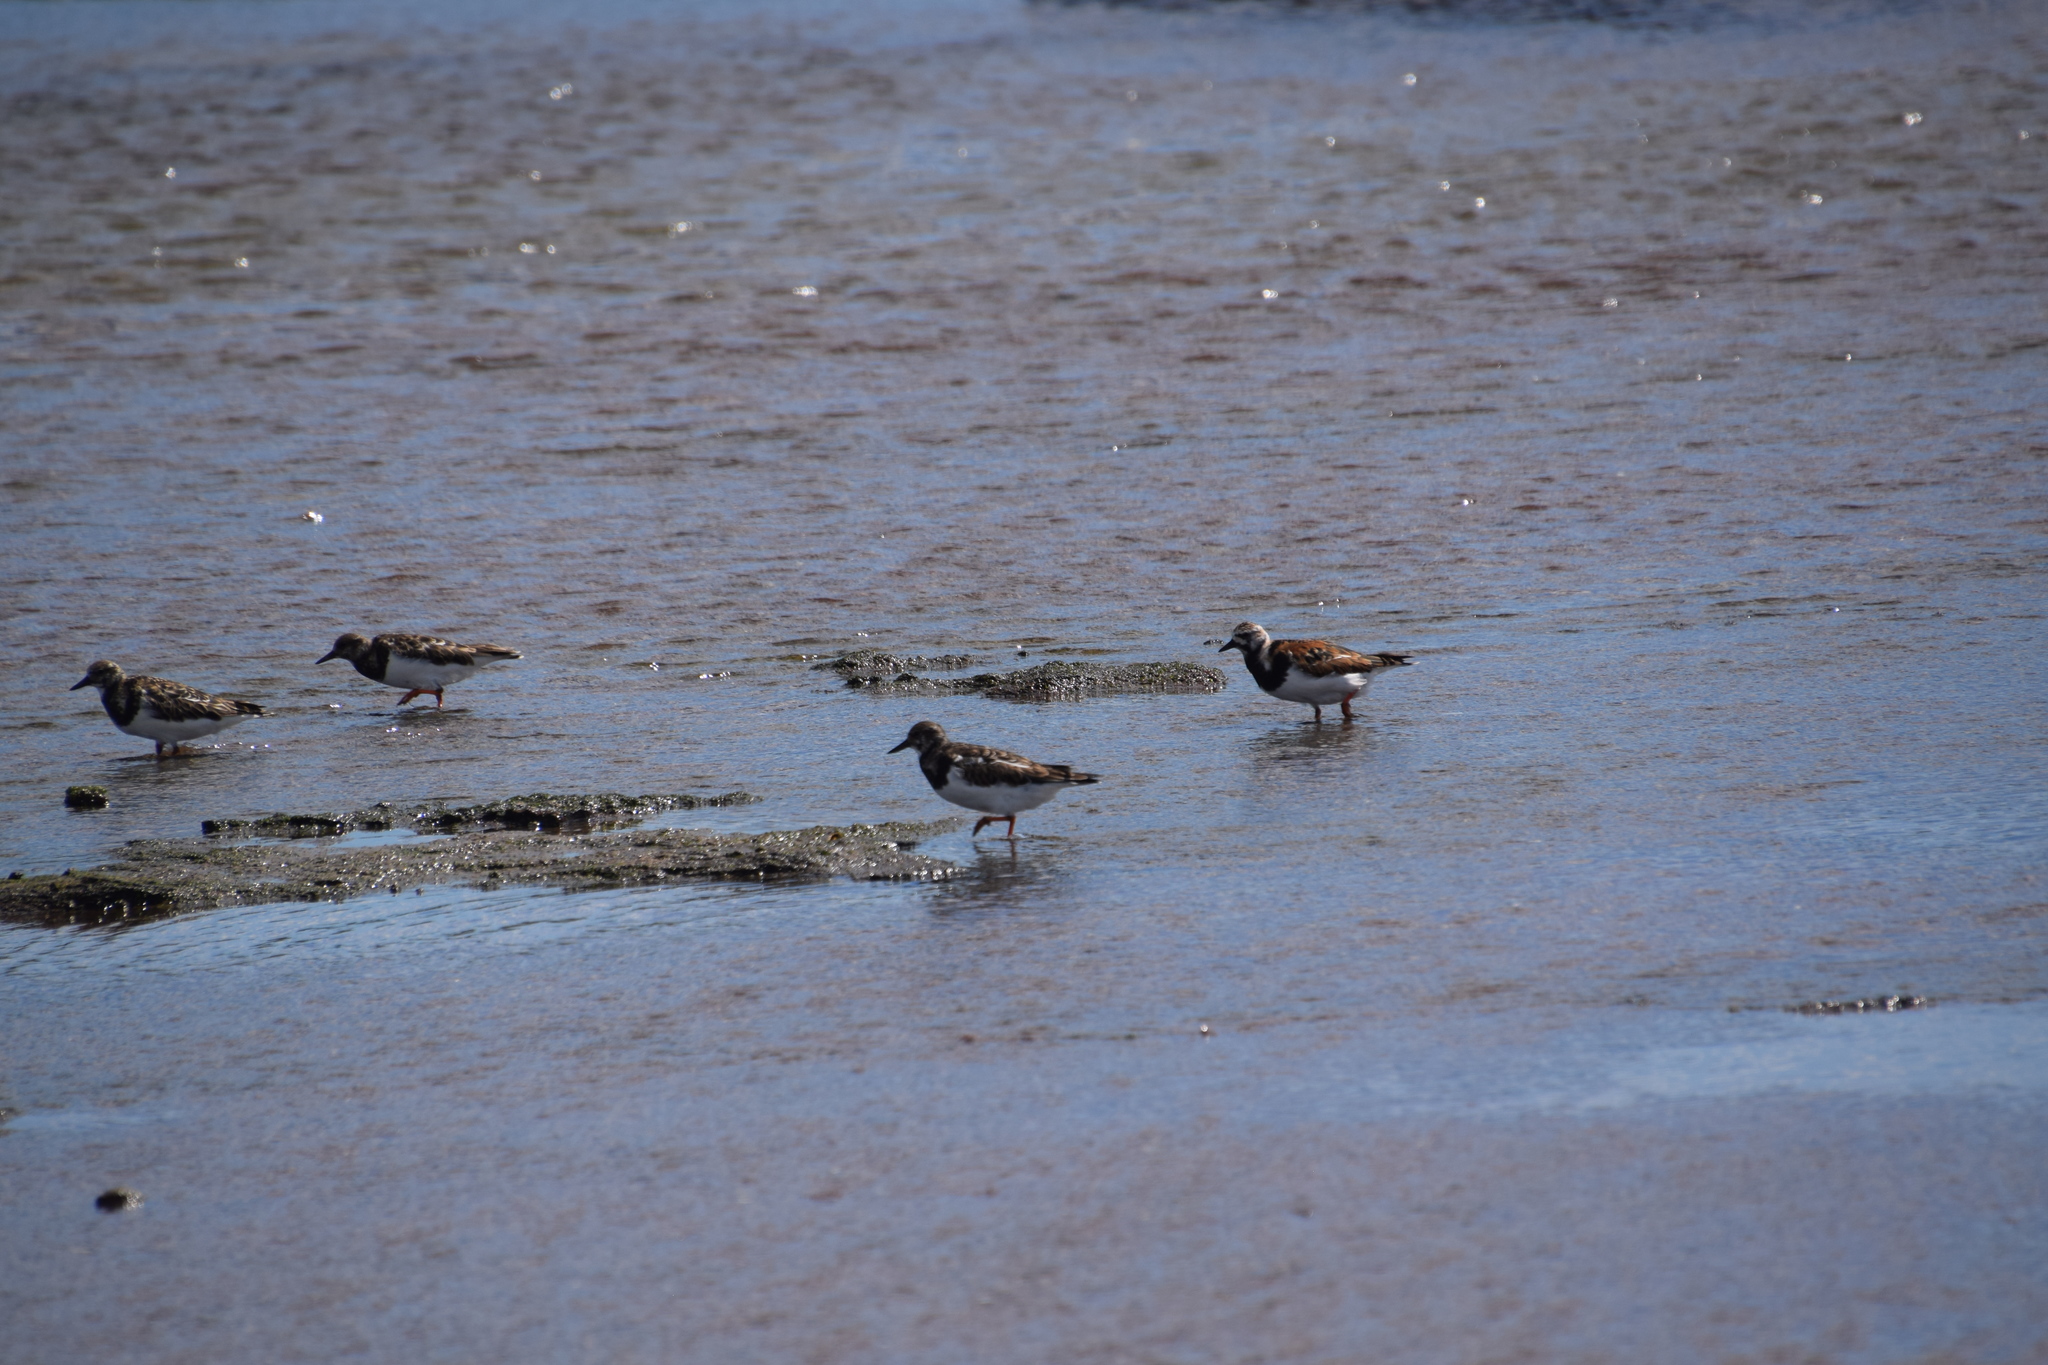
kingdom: Animalia
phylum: Chordata
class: Aves
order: Charadriiformes
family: Scolopacidae
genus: Arenaria
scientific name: Arenaria interpres
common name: Ruddy turnstone
